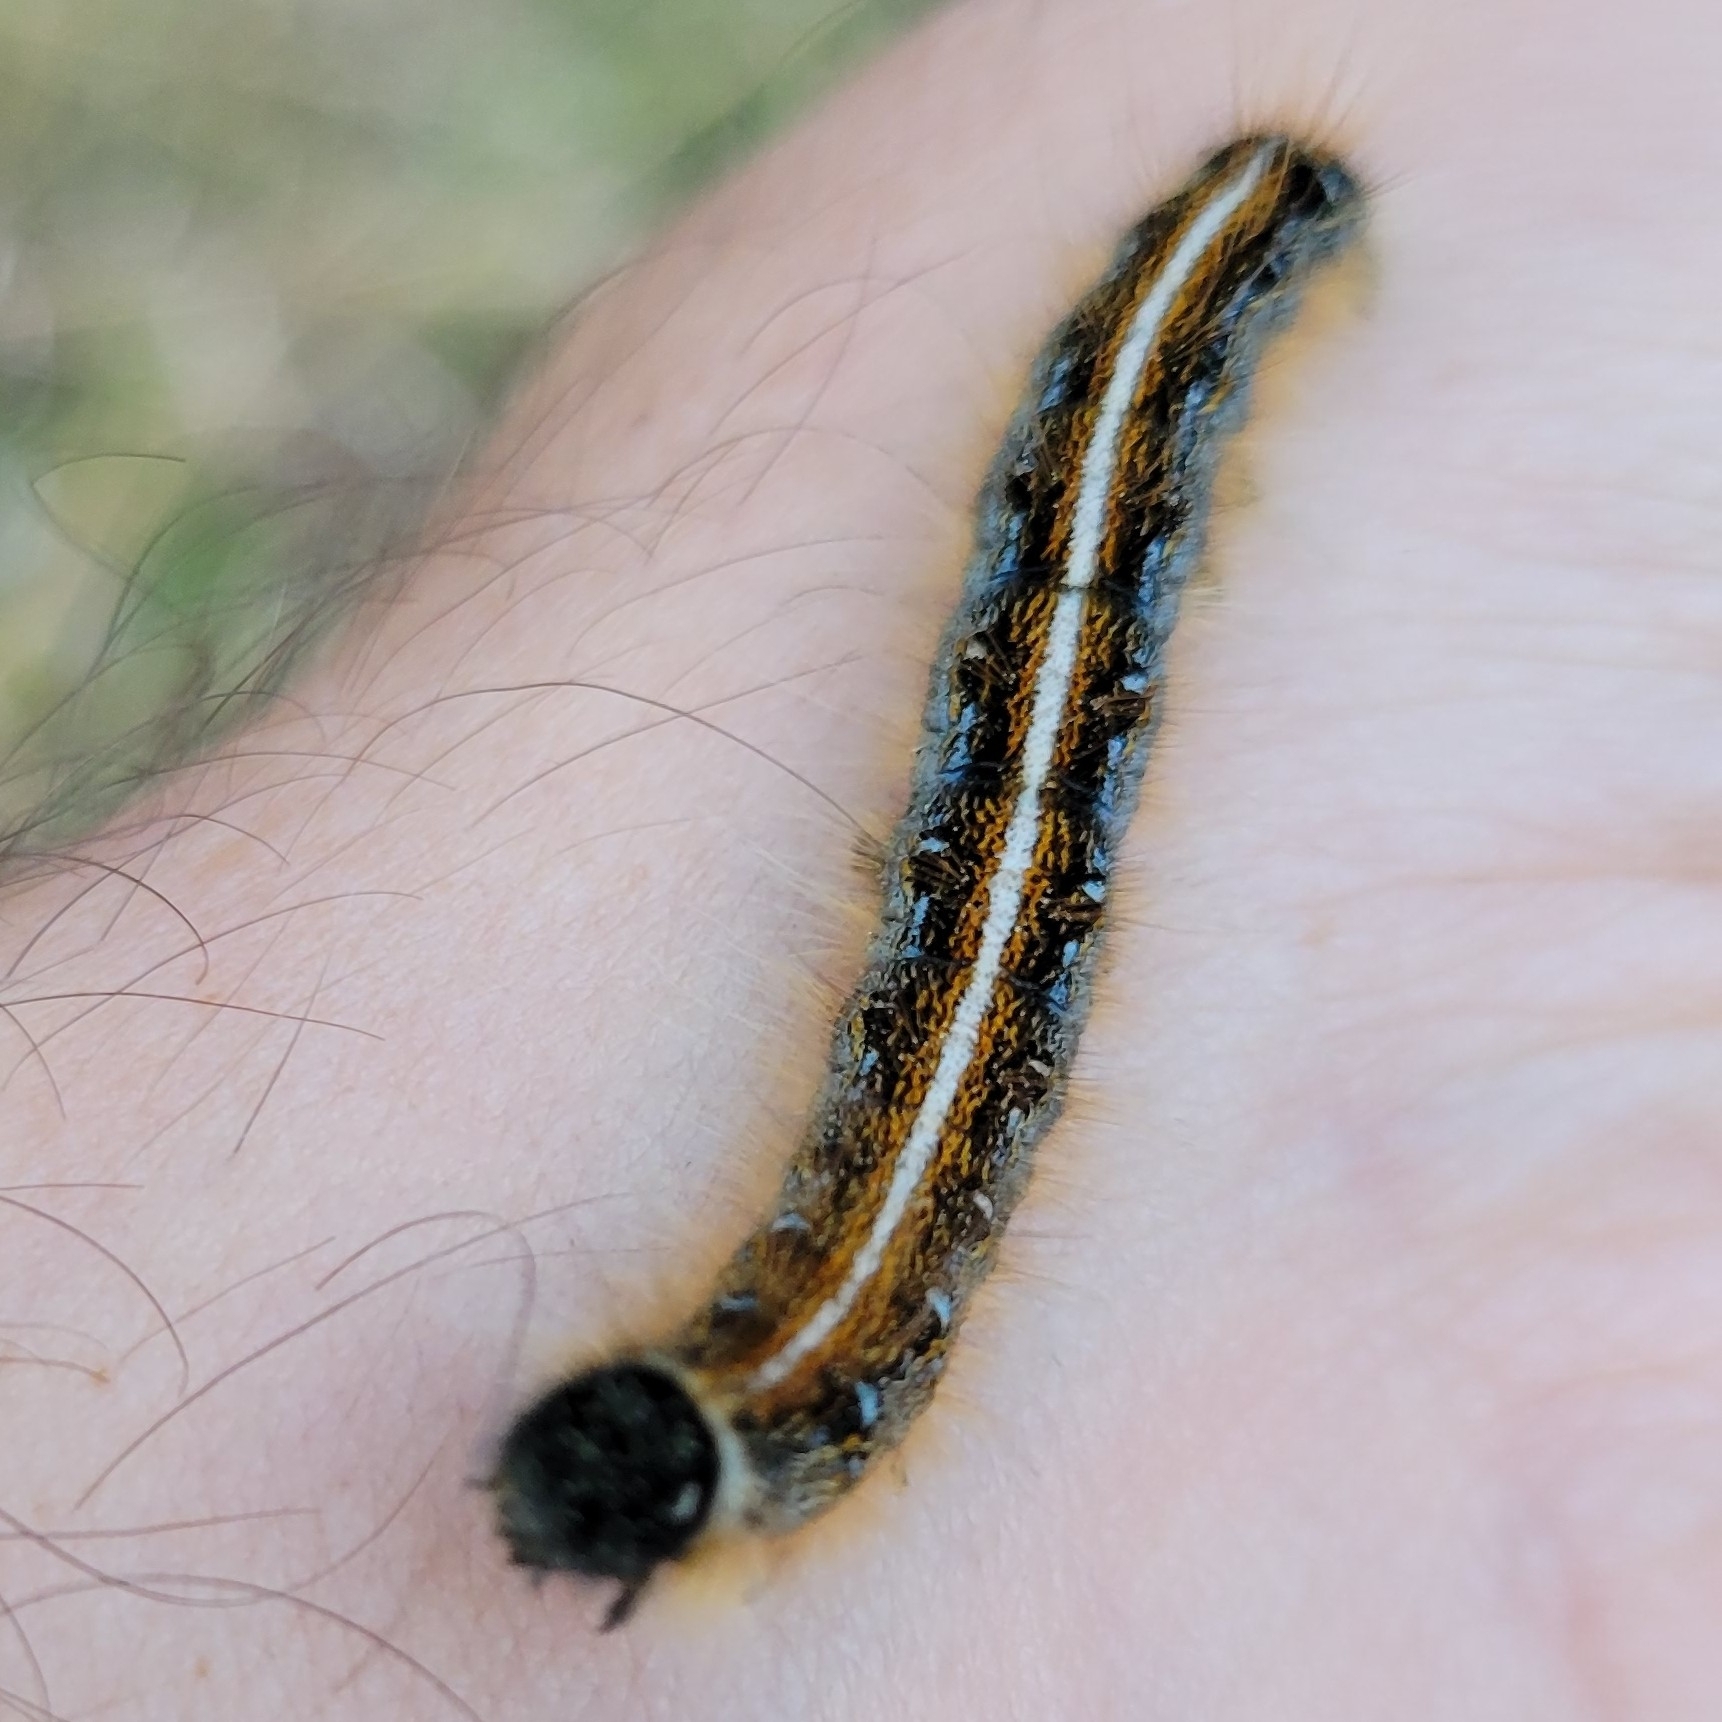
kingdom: Animalia
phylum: Arthropoda
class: Insecta
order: Lepidoptera
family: Lasiocampidae
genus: Malacosoma
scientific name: Malacosoma americana
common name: Eastern tent caterpillar moth
